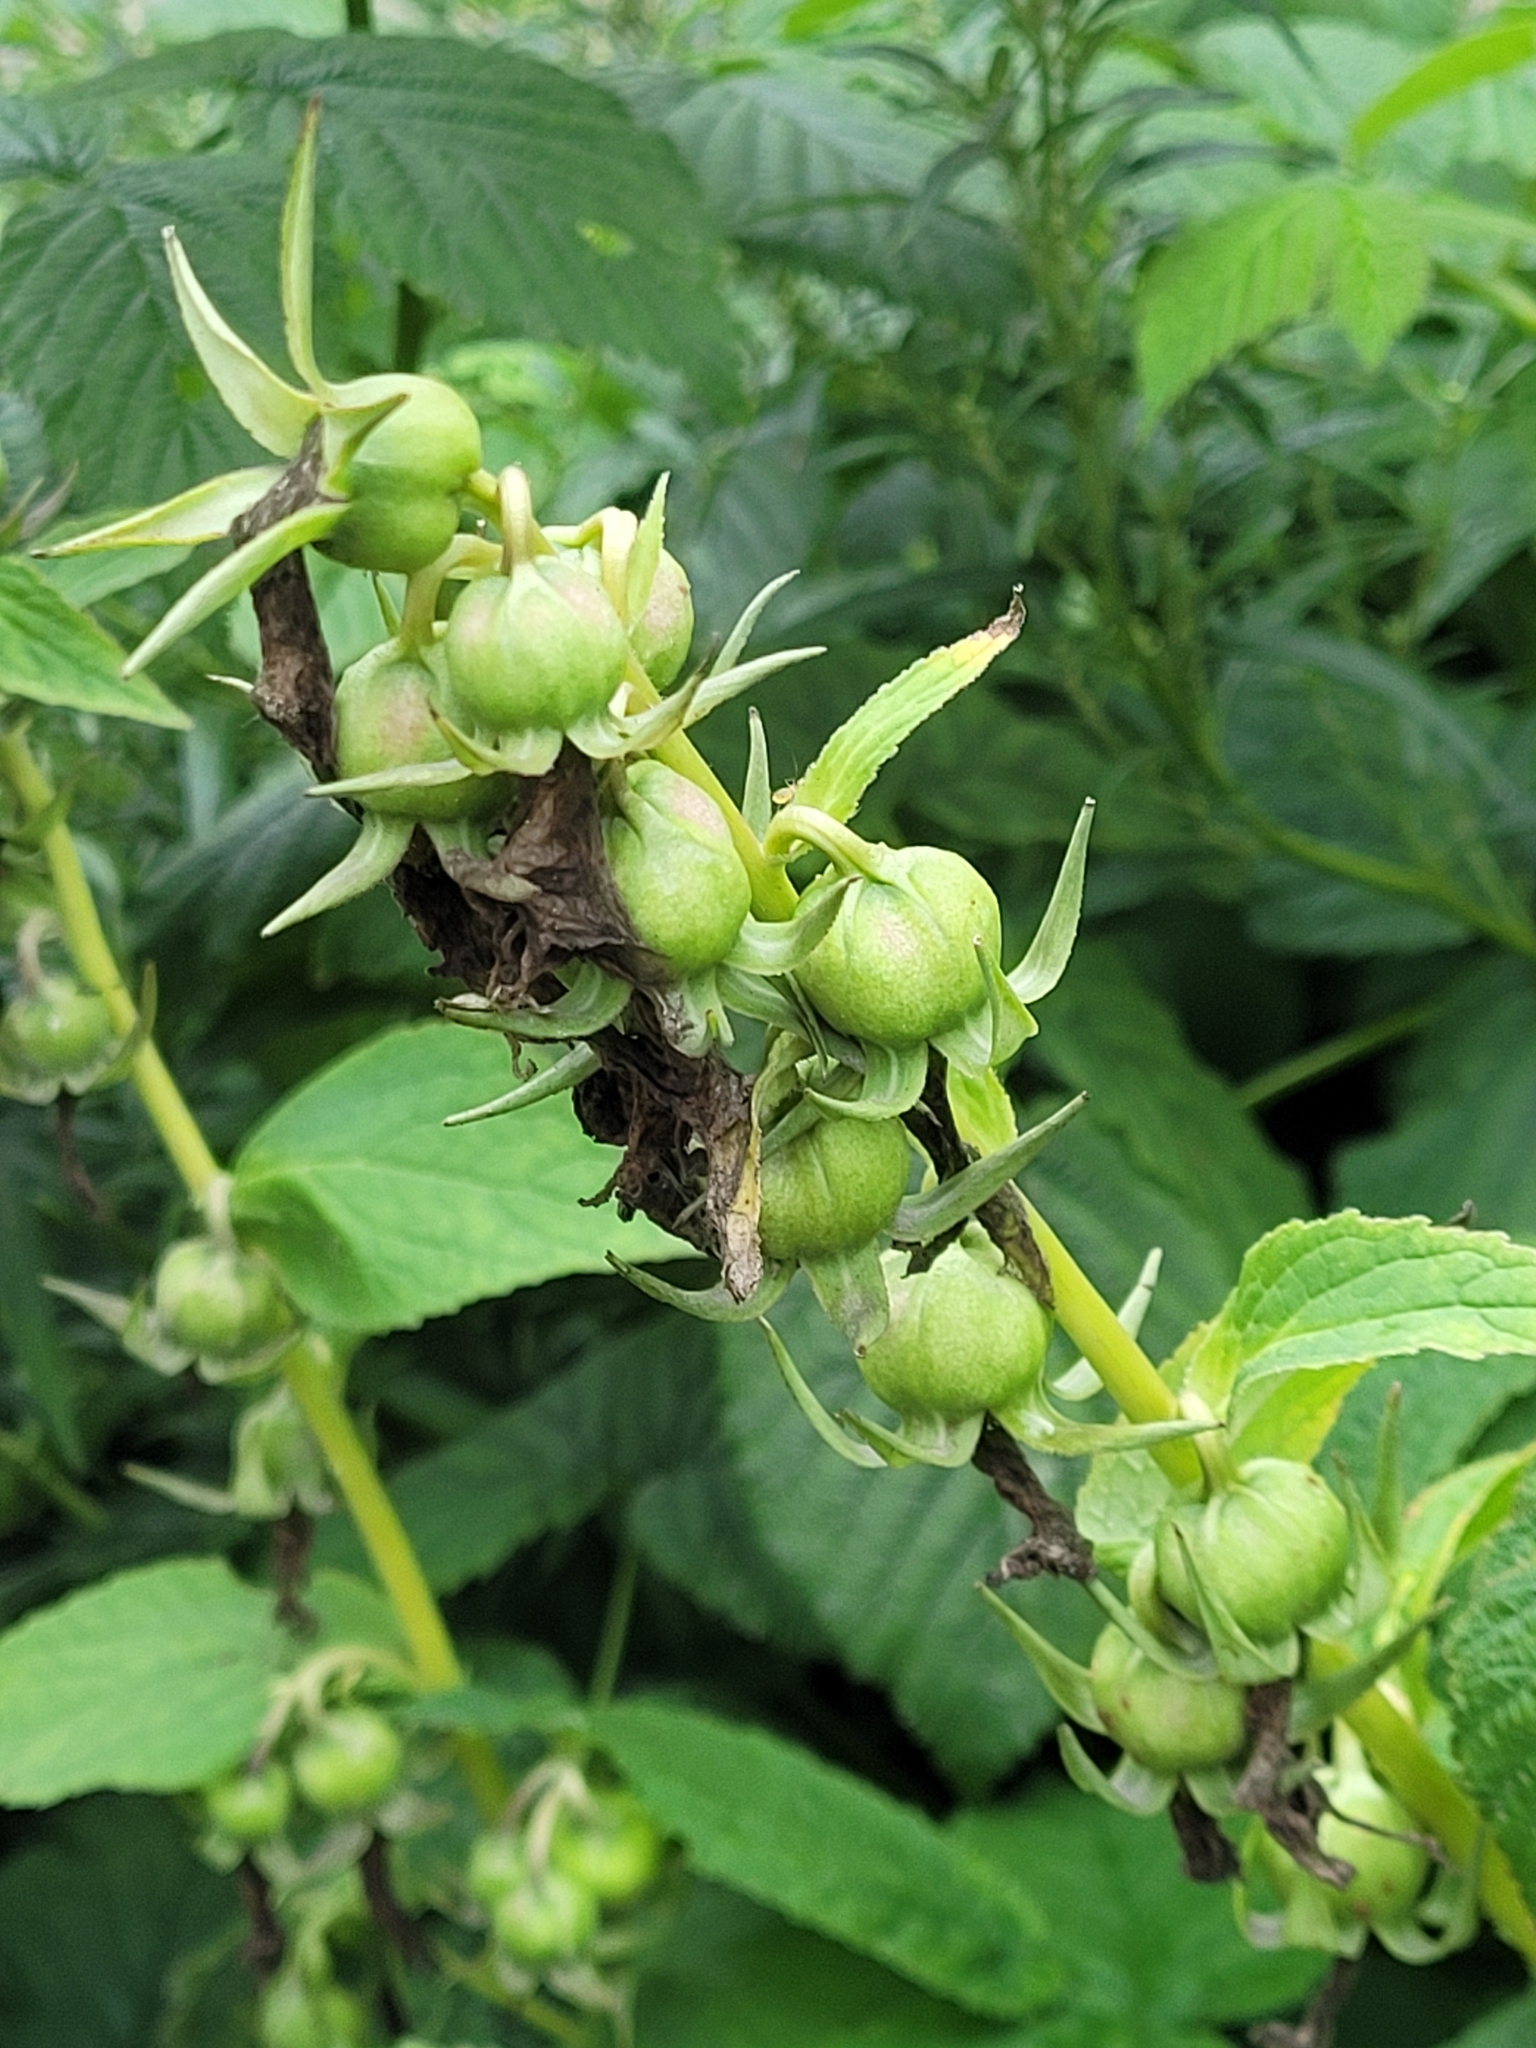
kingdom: Plantae
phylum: Tracheophyta
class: Magnoliopsida
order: Asterales
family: Campanulaceae
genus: Campanula
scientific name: Campanula latifolia
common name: Giant bellflower
